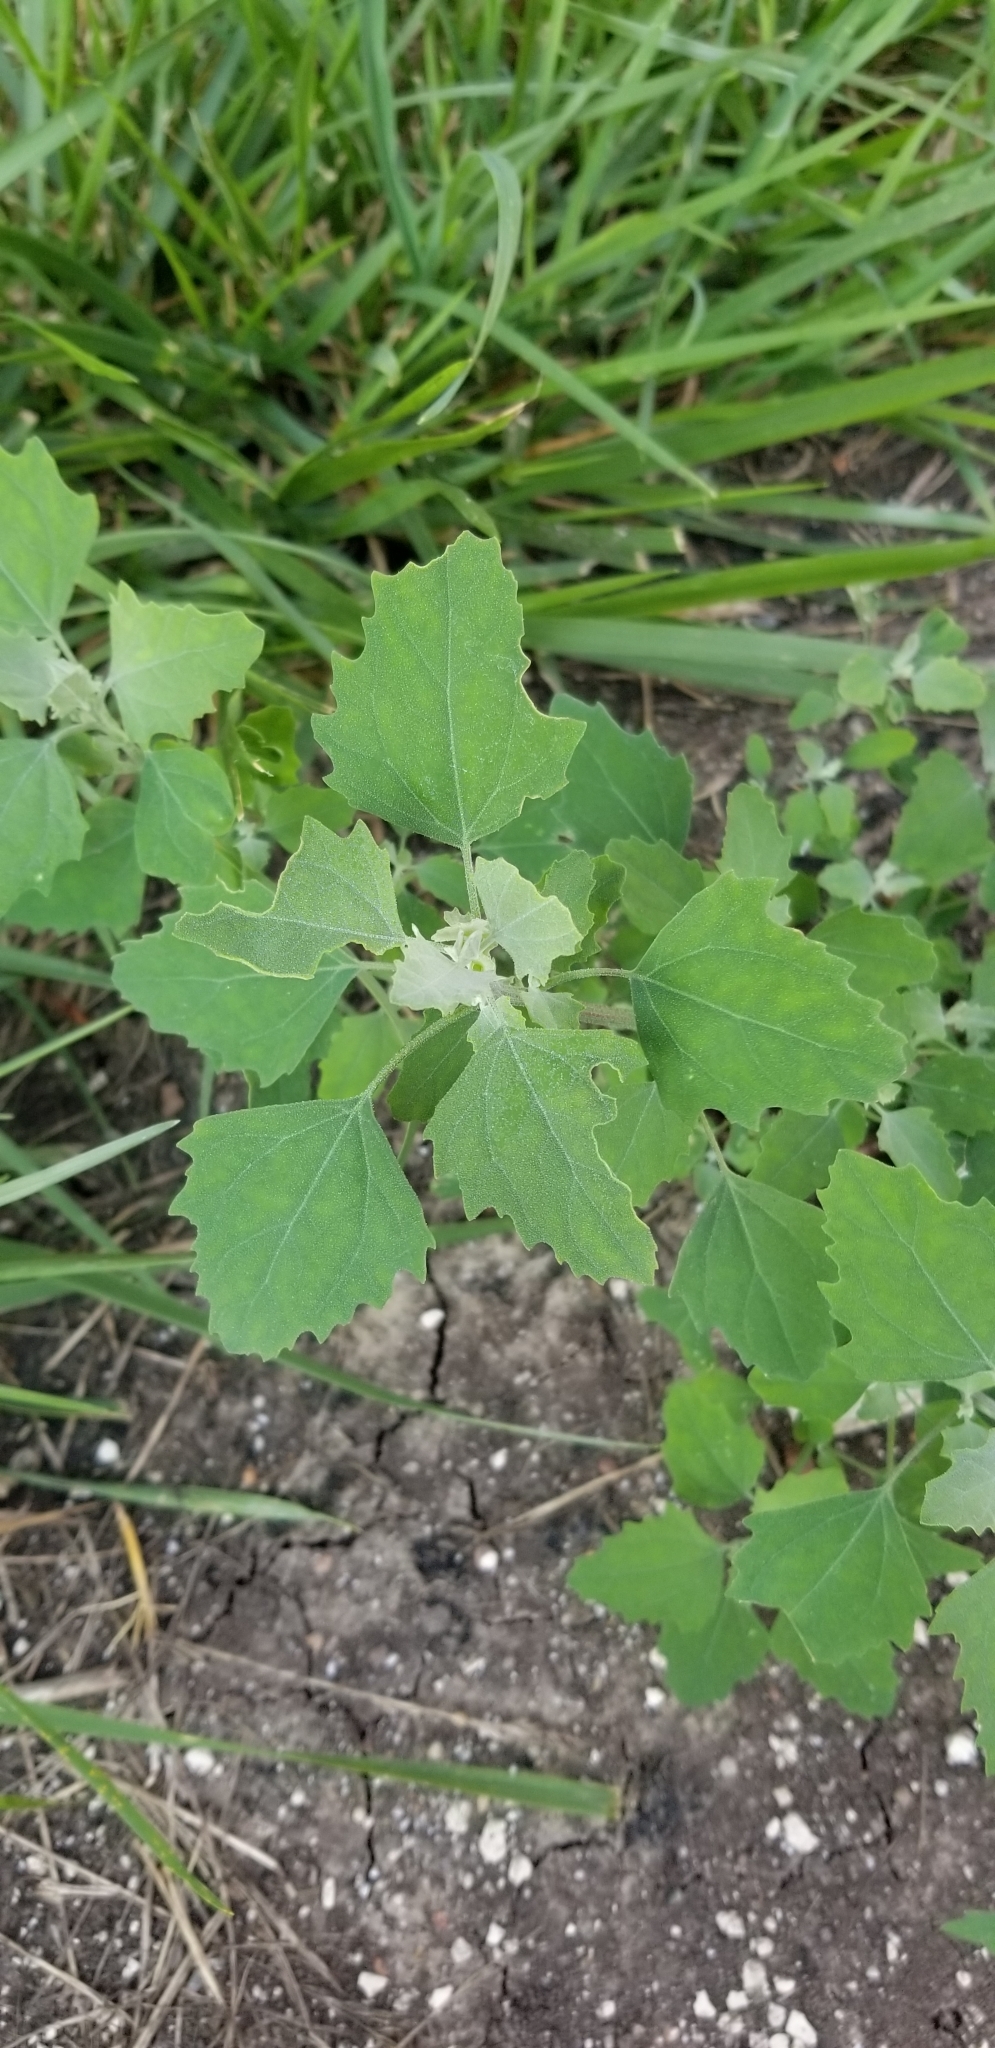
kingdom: Plantae
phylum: Tracheophyta
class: Magnoliopsida
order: Caryophyllales
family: Amaranthaceae
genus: Chenopodium
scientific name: Chenopodium album
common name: Fat-hen
